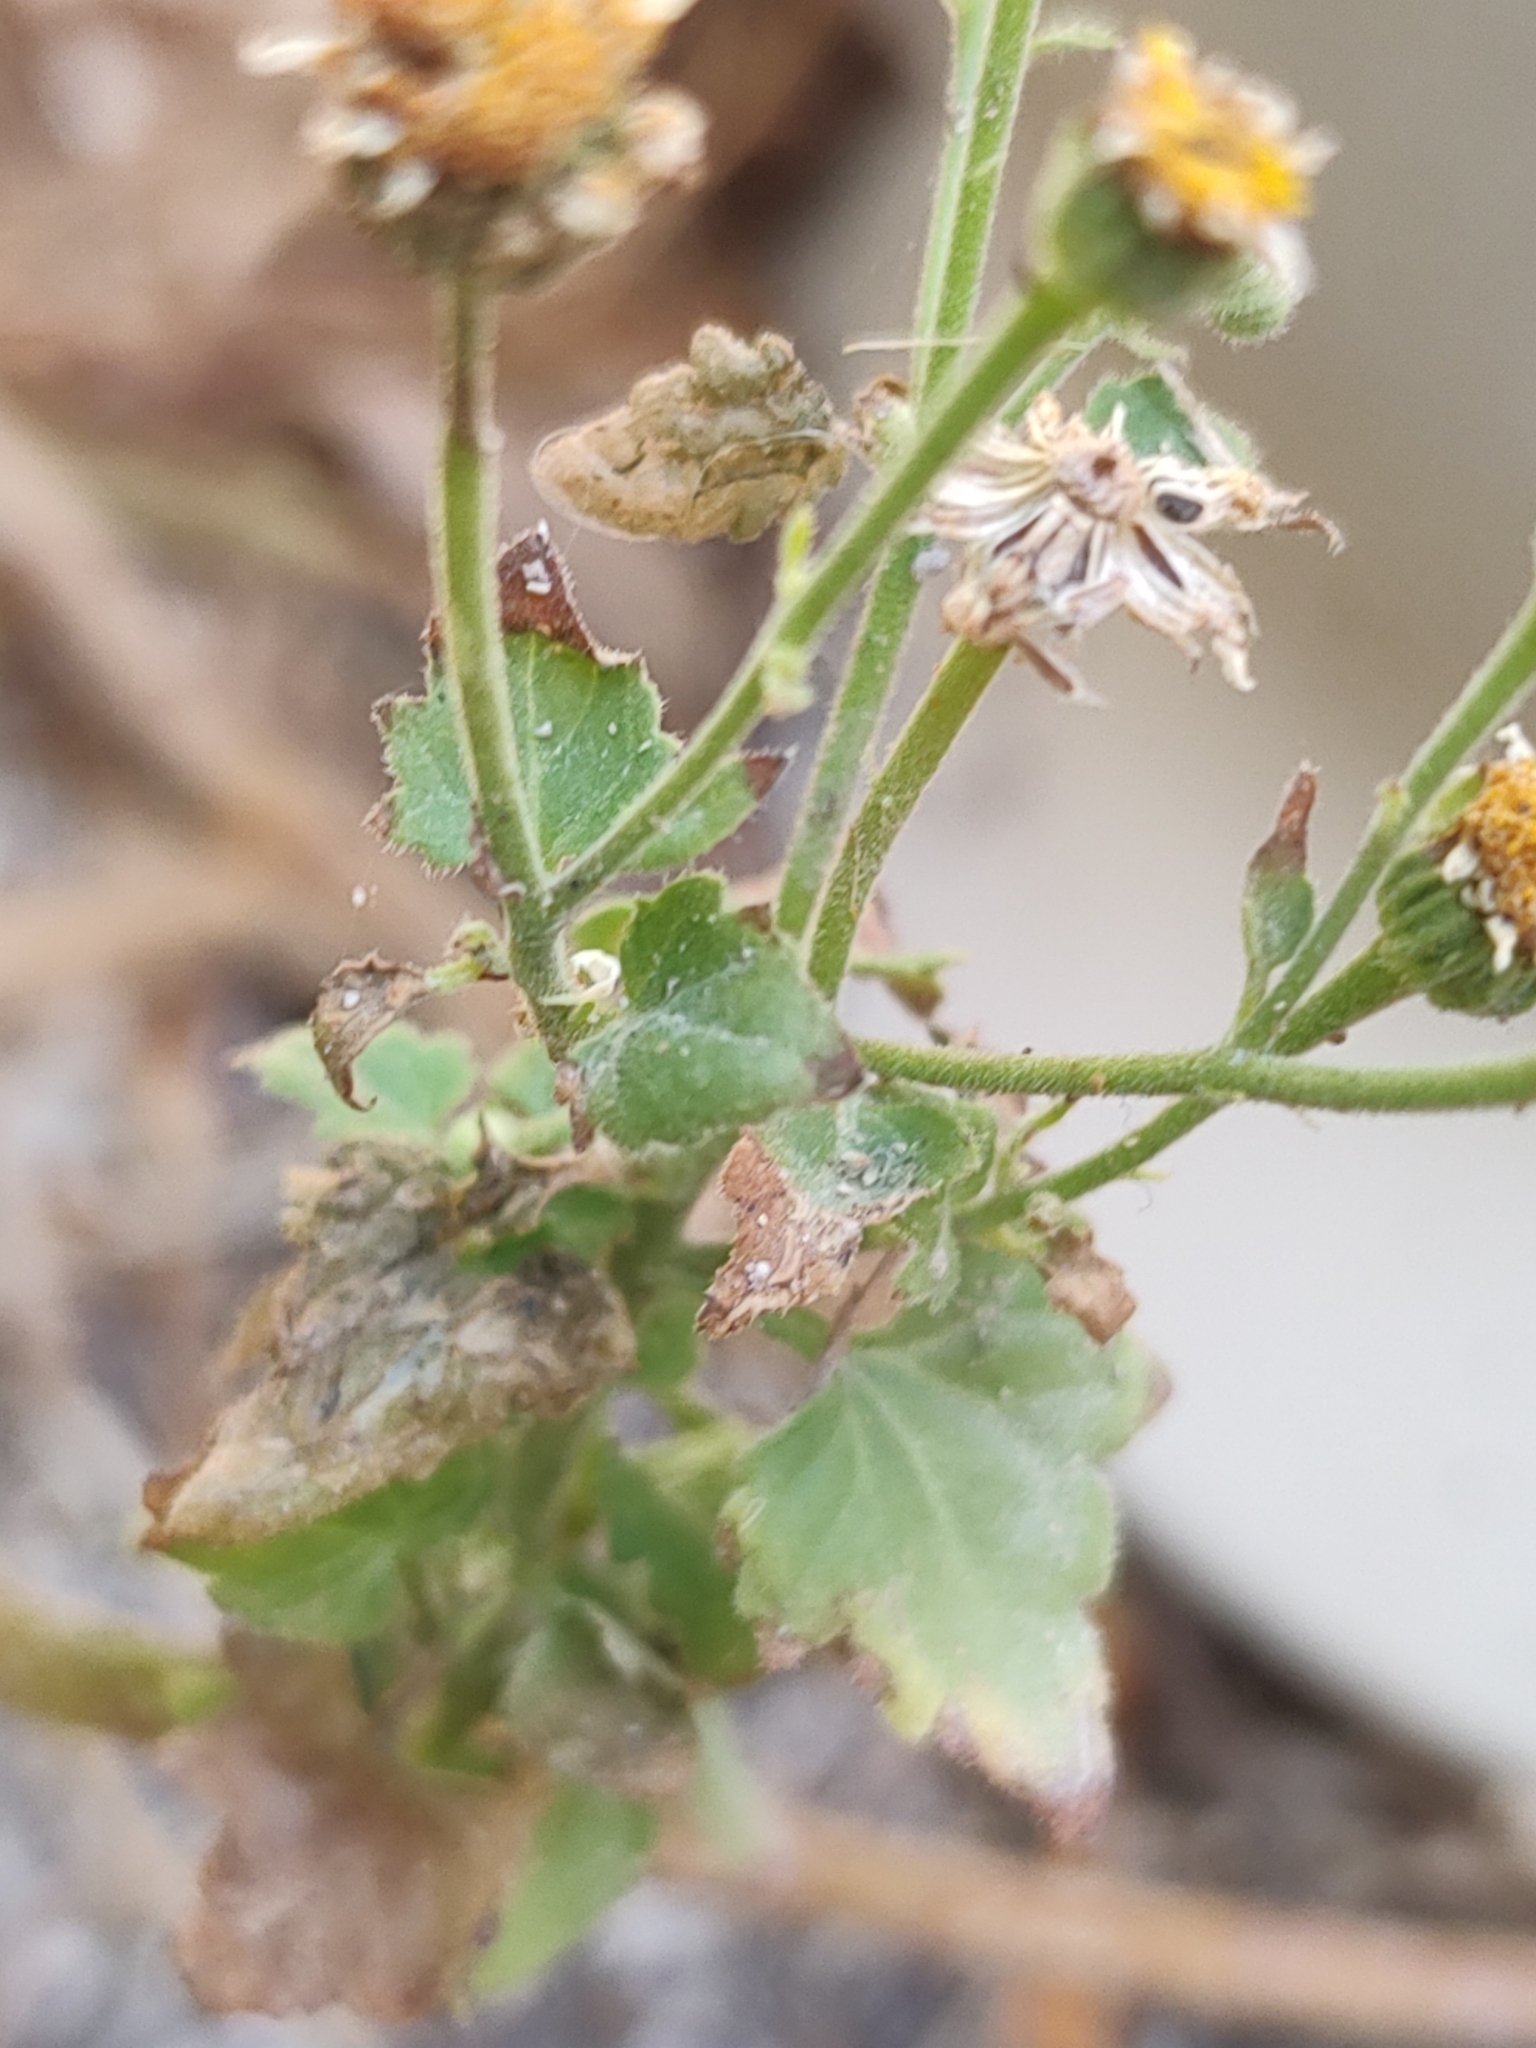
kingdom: Plantae
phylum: Tracheophyta
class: Magnoliopsida
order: Asterales
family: Asteraceae
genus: Galinsogeopsis
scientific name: Galinsogeopsis spilanthoides
